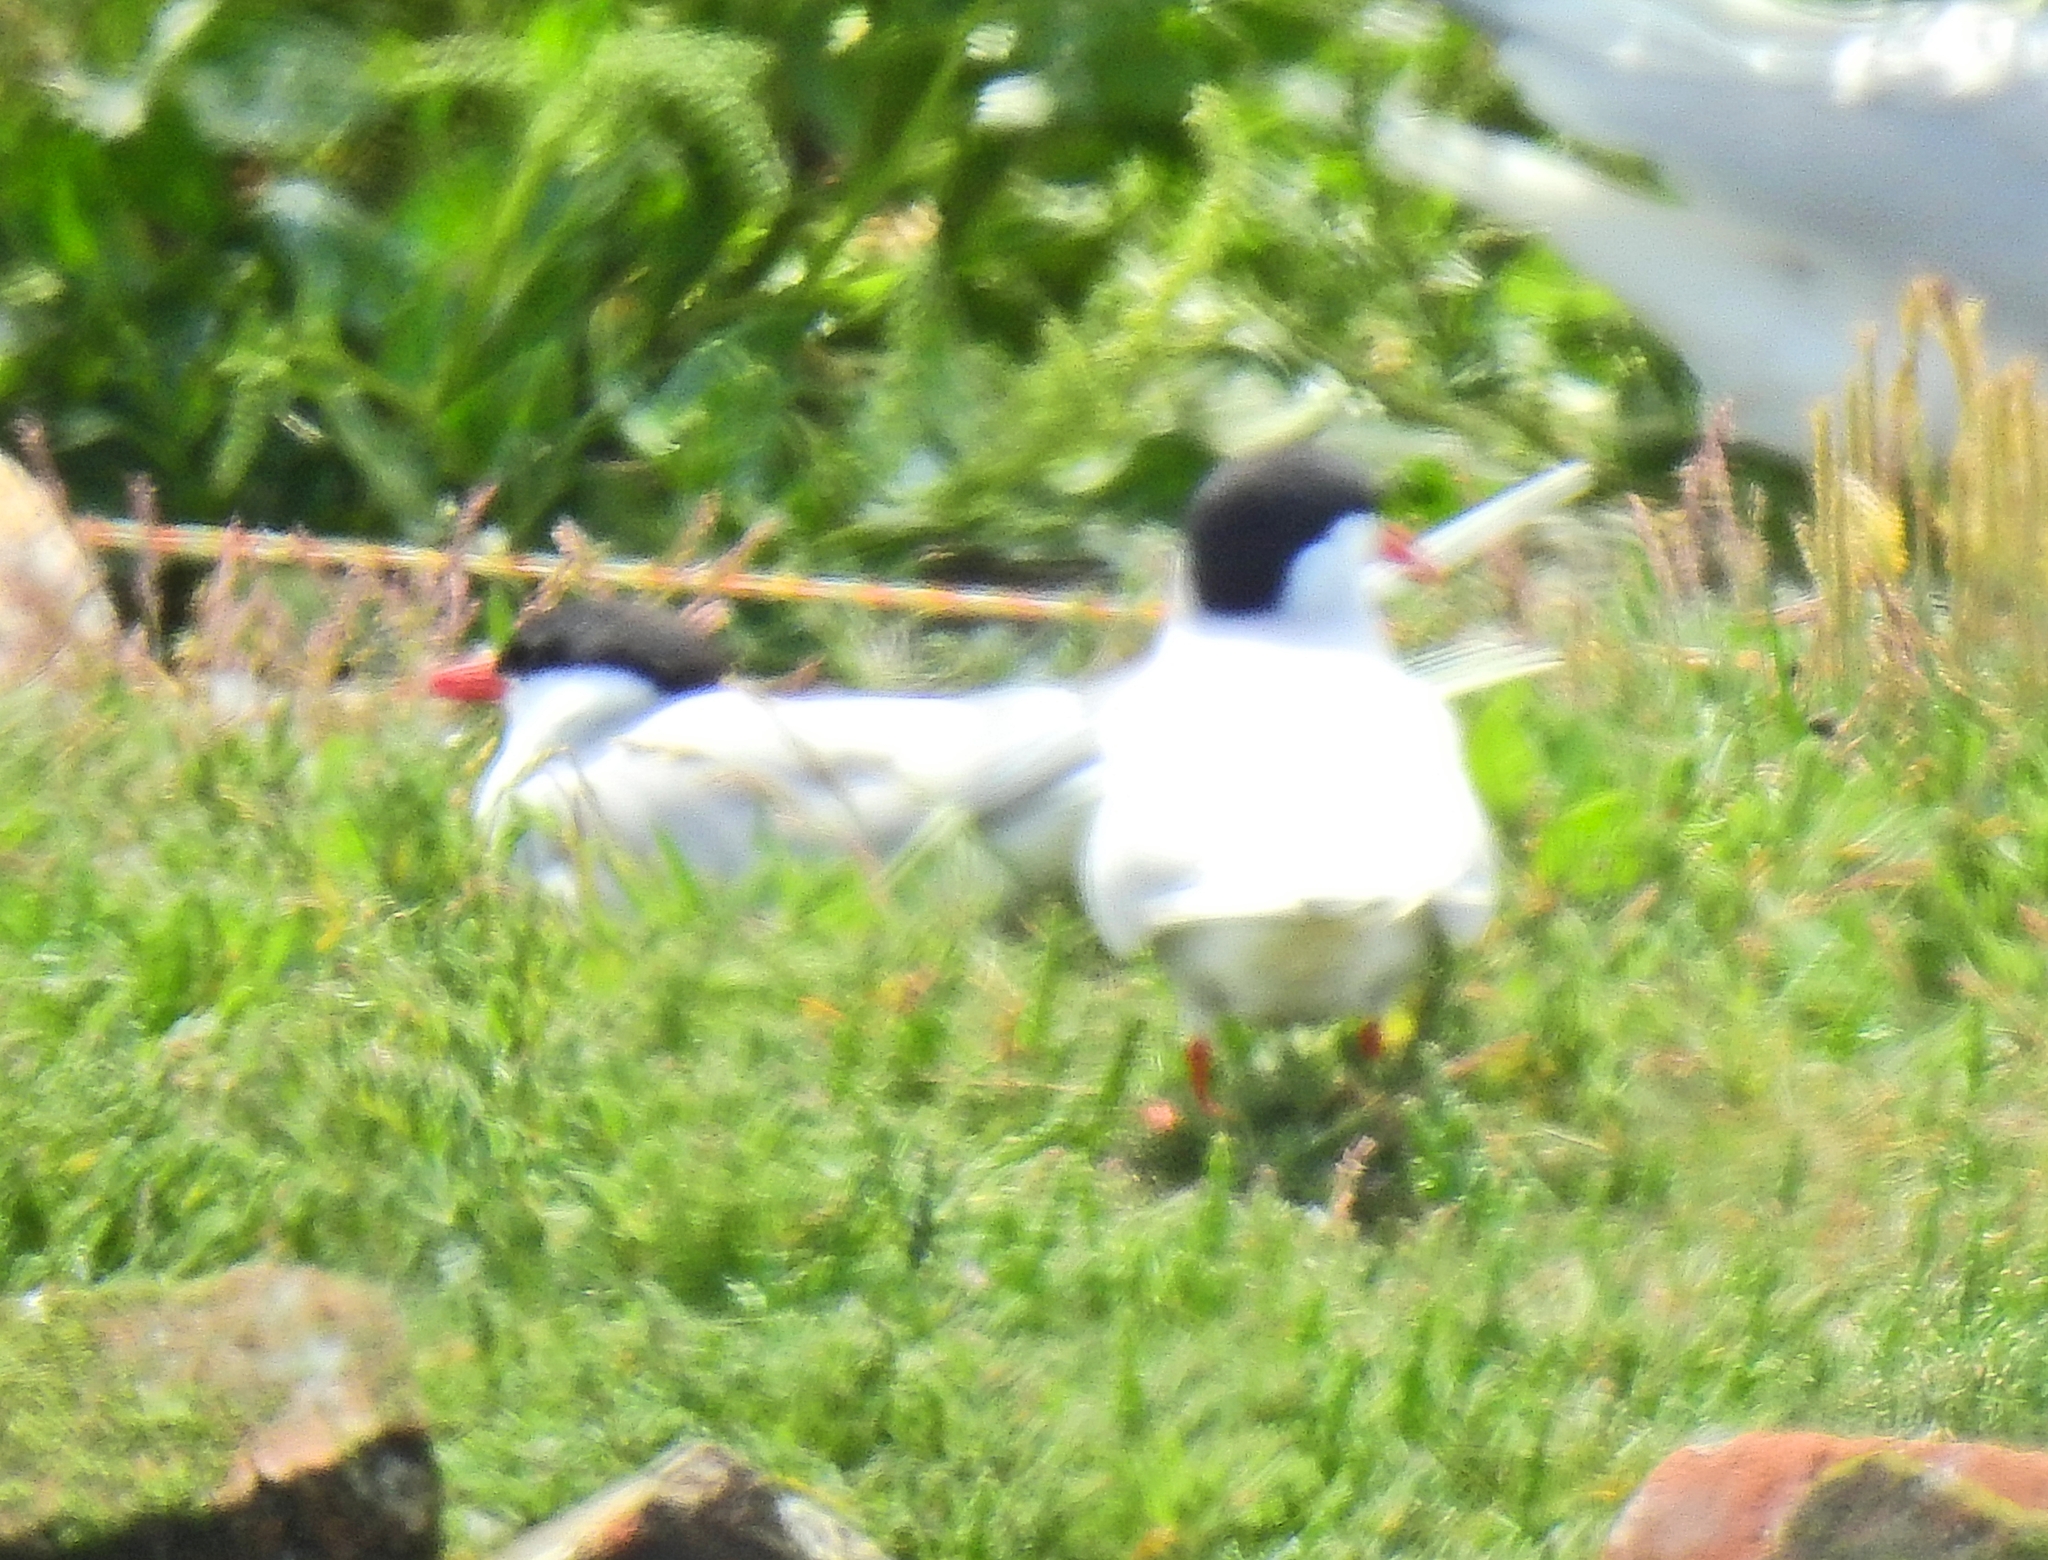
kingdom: Animalia
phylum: Chordata
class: Aves
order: Charadriiformes
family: Laridae
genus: Sterna
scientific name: Sterna paradisaea
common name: Arctic tern
